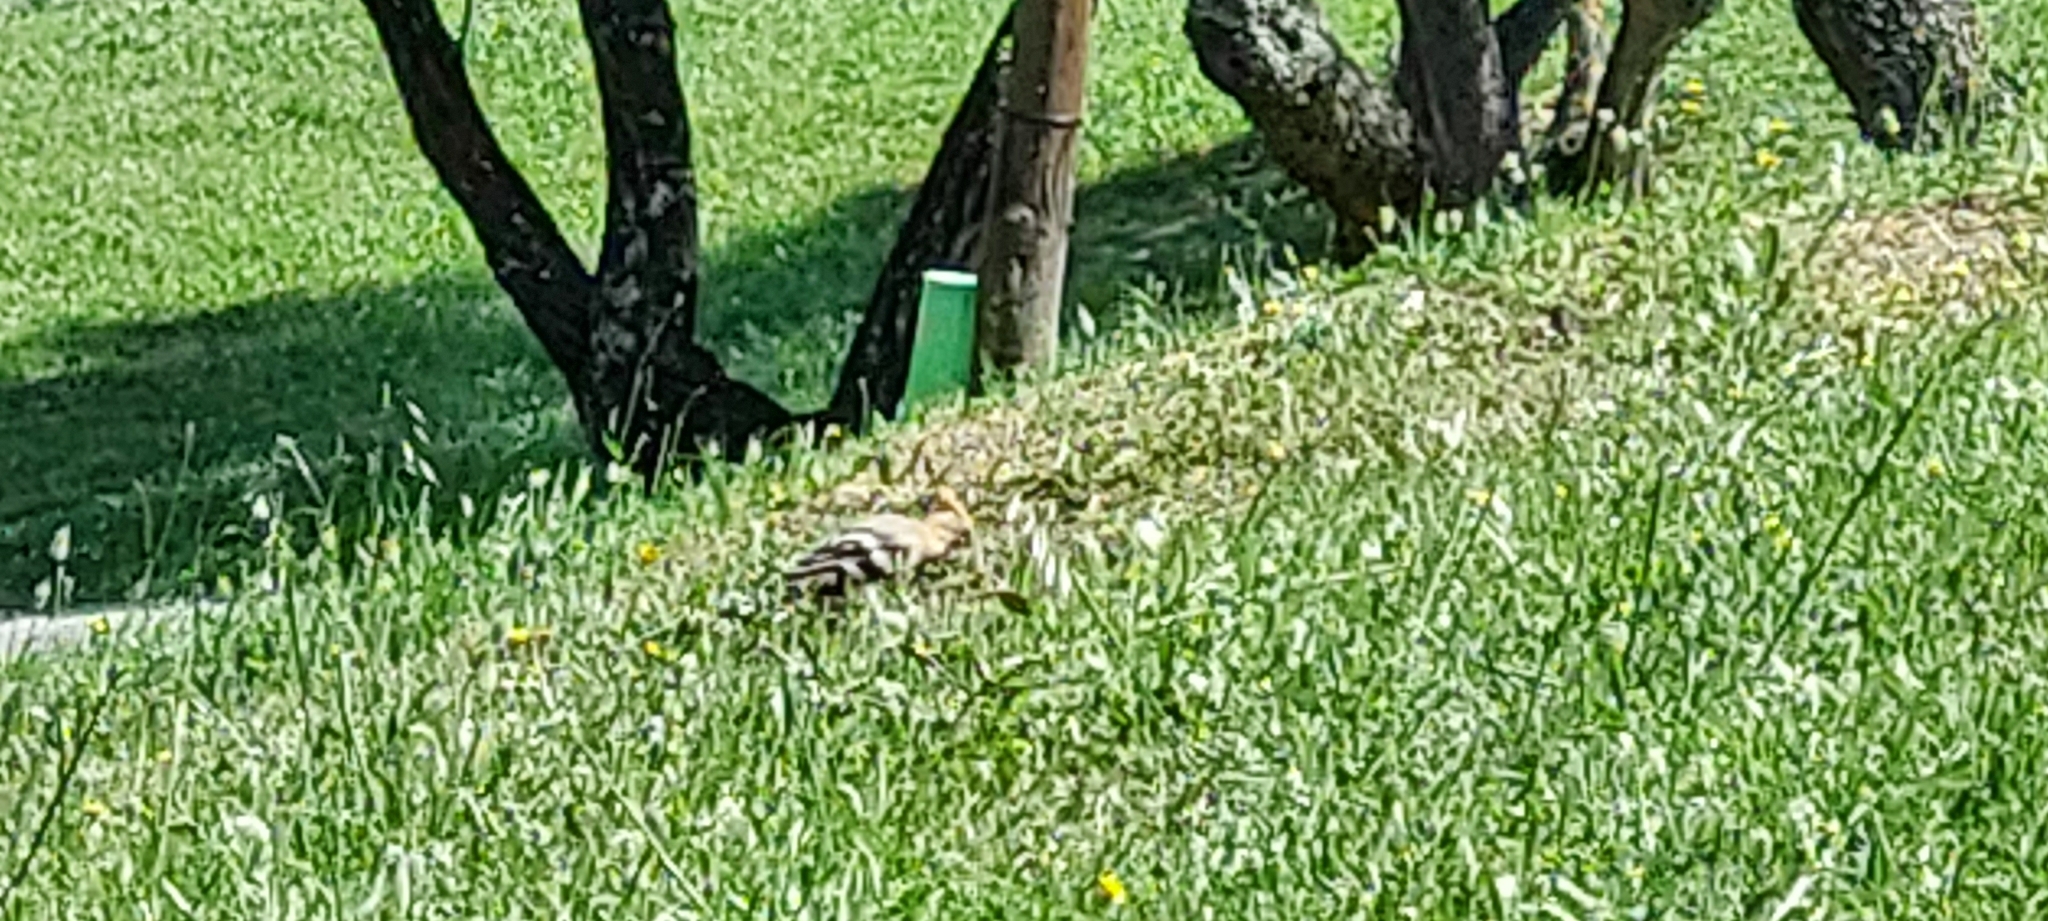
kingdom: Animalia
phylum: Chordata
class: Aves
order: Bucerotiformes
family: Upupidae
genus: Upupa
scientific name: Upupa epops
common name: Eurasian hoopoe
